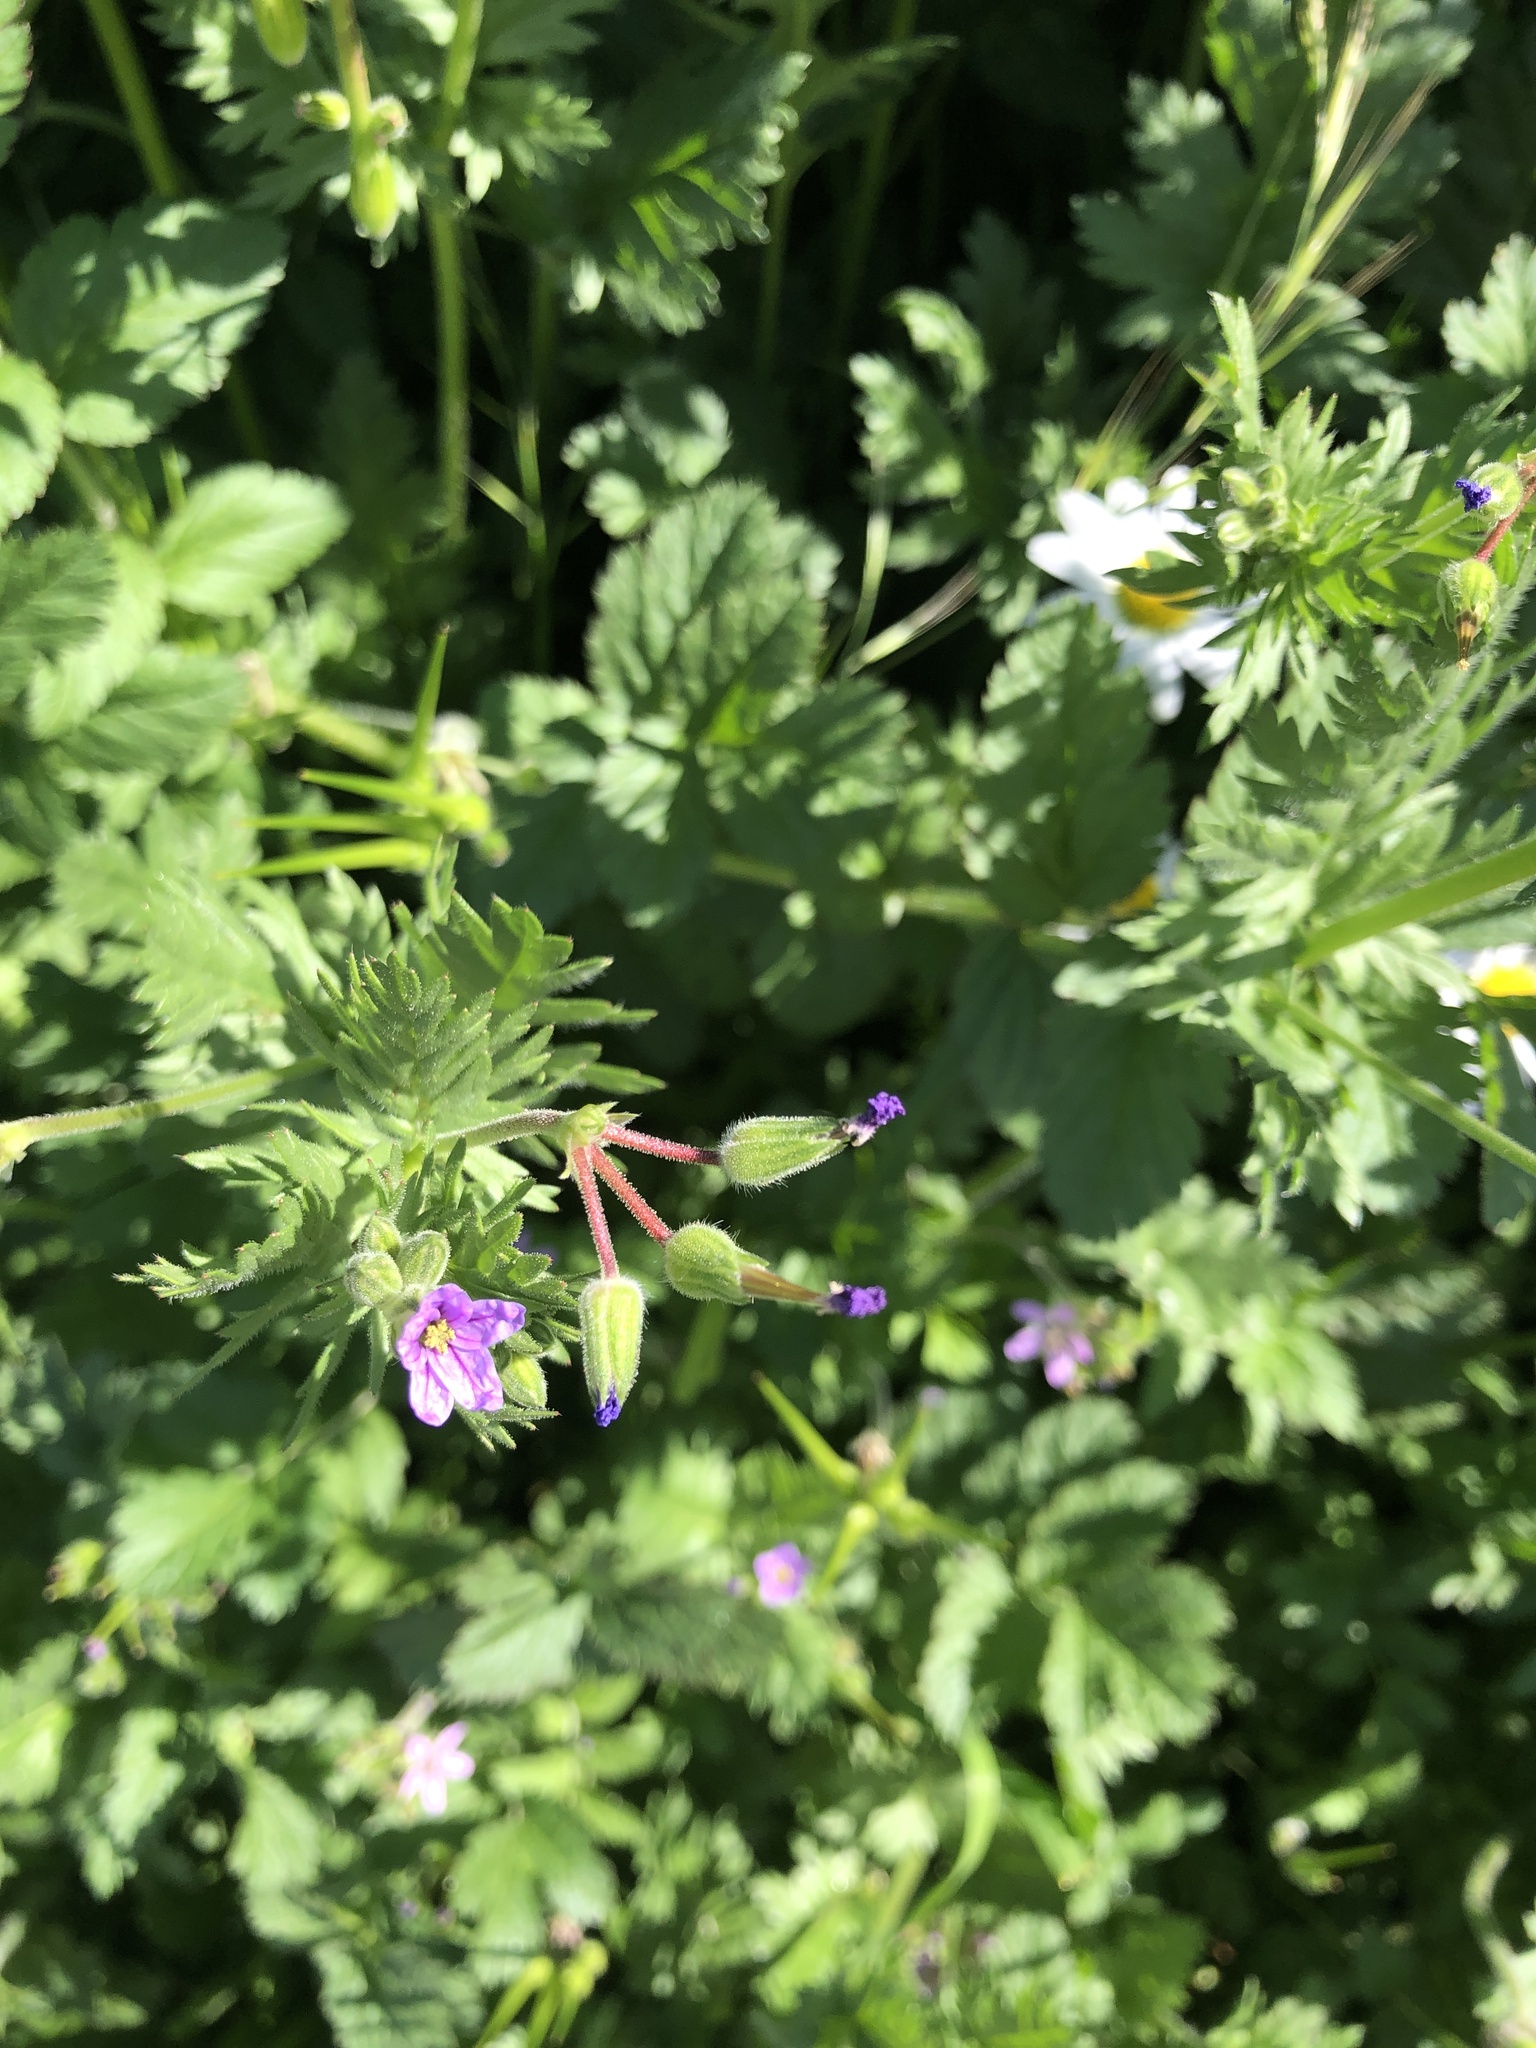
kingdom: Plantae
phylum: Tracheophyta
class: Magnoliopsida
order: Geraniales
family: Geraniaceae
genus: Erodium
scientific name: Erodium brachycarpum
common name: Hairy-pitted stork's-bill
